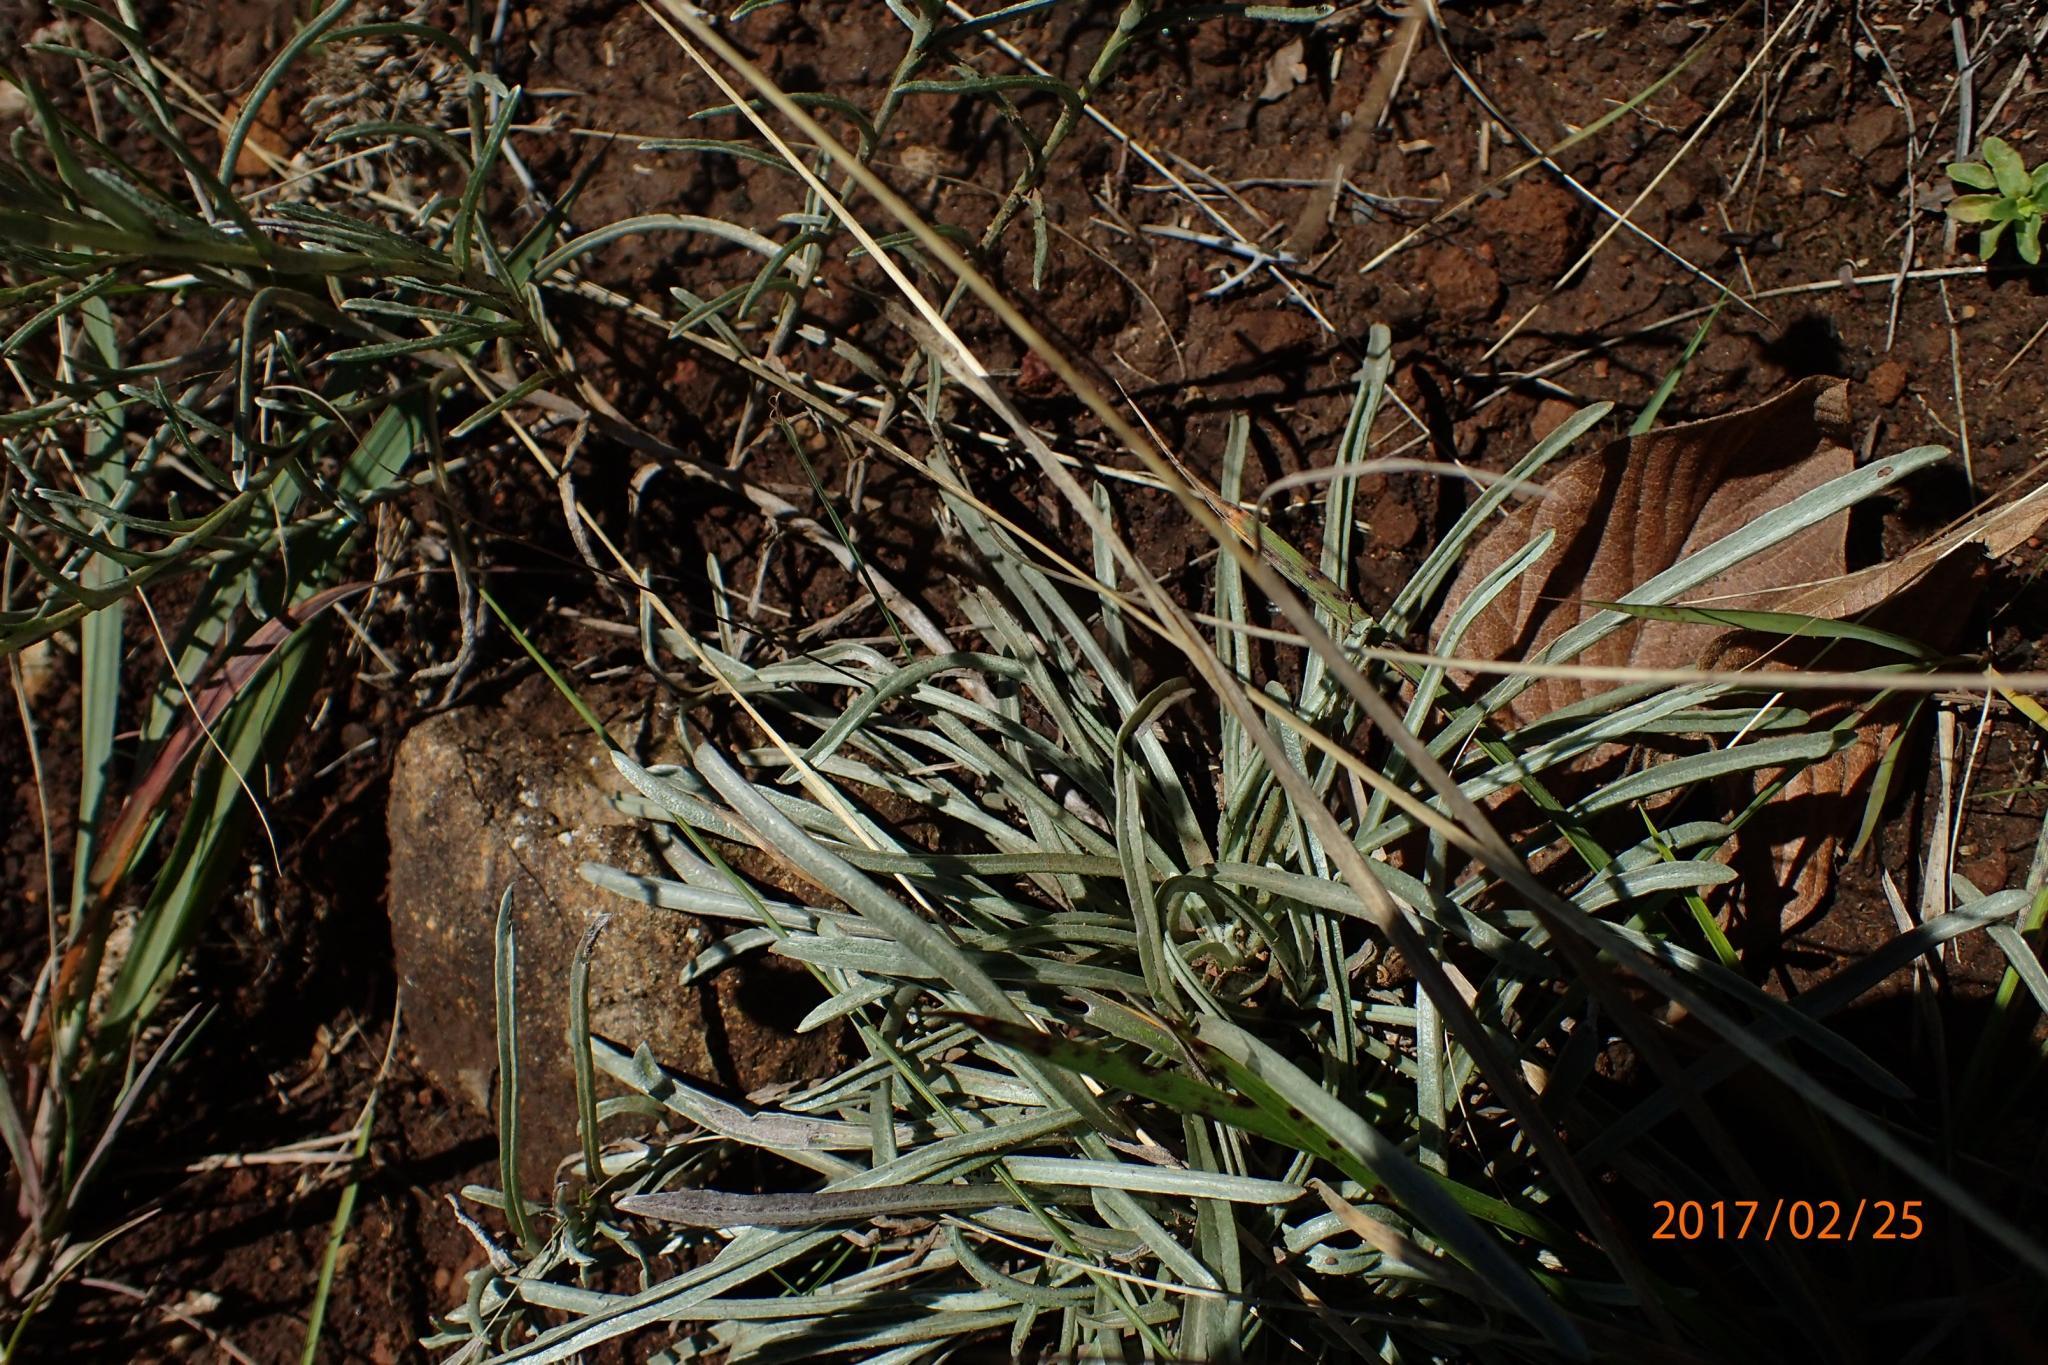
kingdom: Plantae
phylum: Tracheophyta
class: Magnoliopsida
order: Asterales
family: Asteraceae
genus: Helichrysum
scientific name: Helichrysum oligopappum
